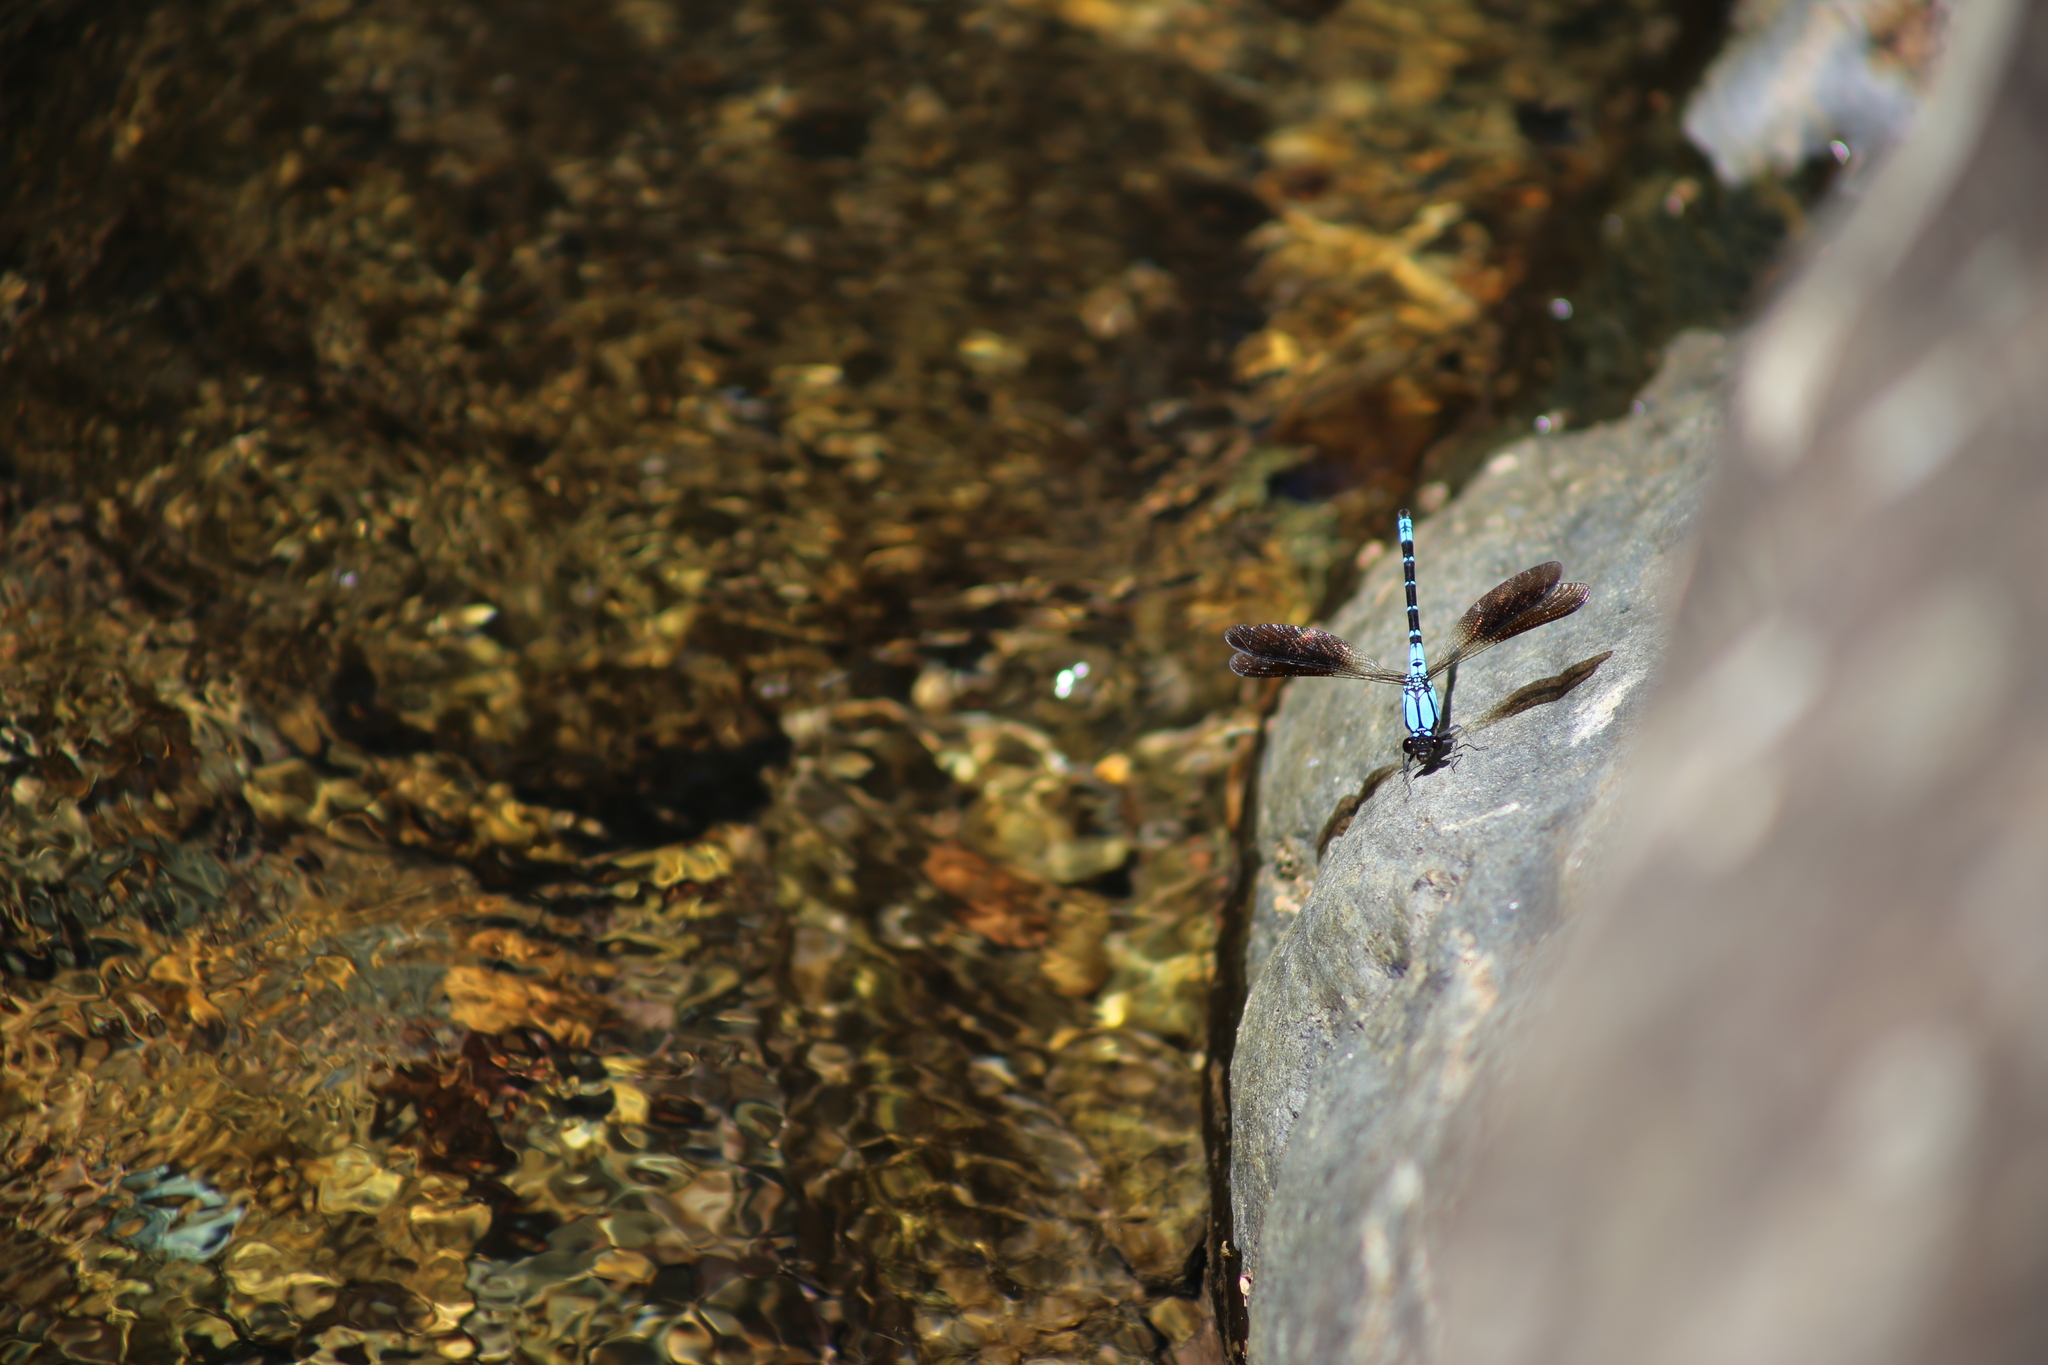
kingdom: Animalia
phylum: Arthropoda
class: Insecta
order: Odonata
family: Lestoideidae
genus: Diphlebia
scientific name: Diphlebia coerulescens
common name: Sapphire rockmaster
